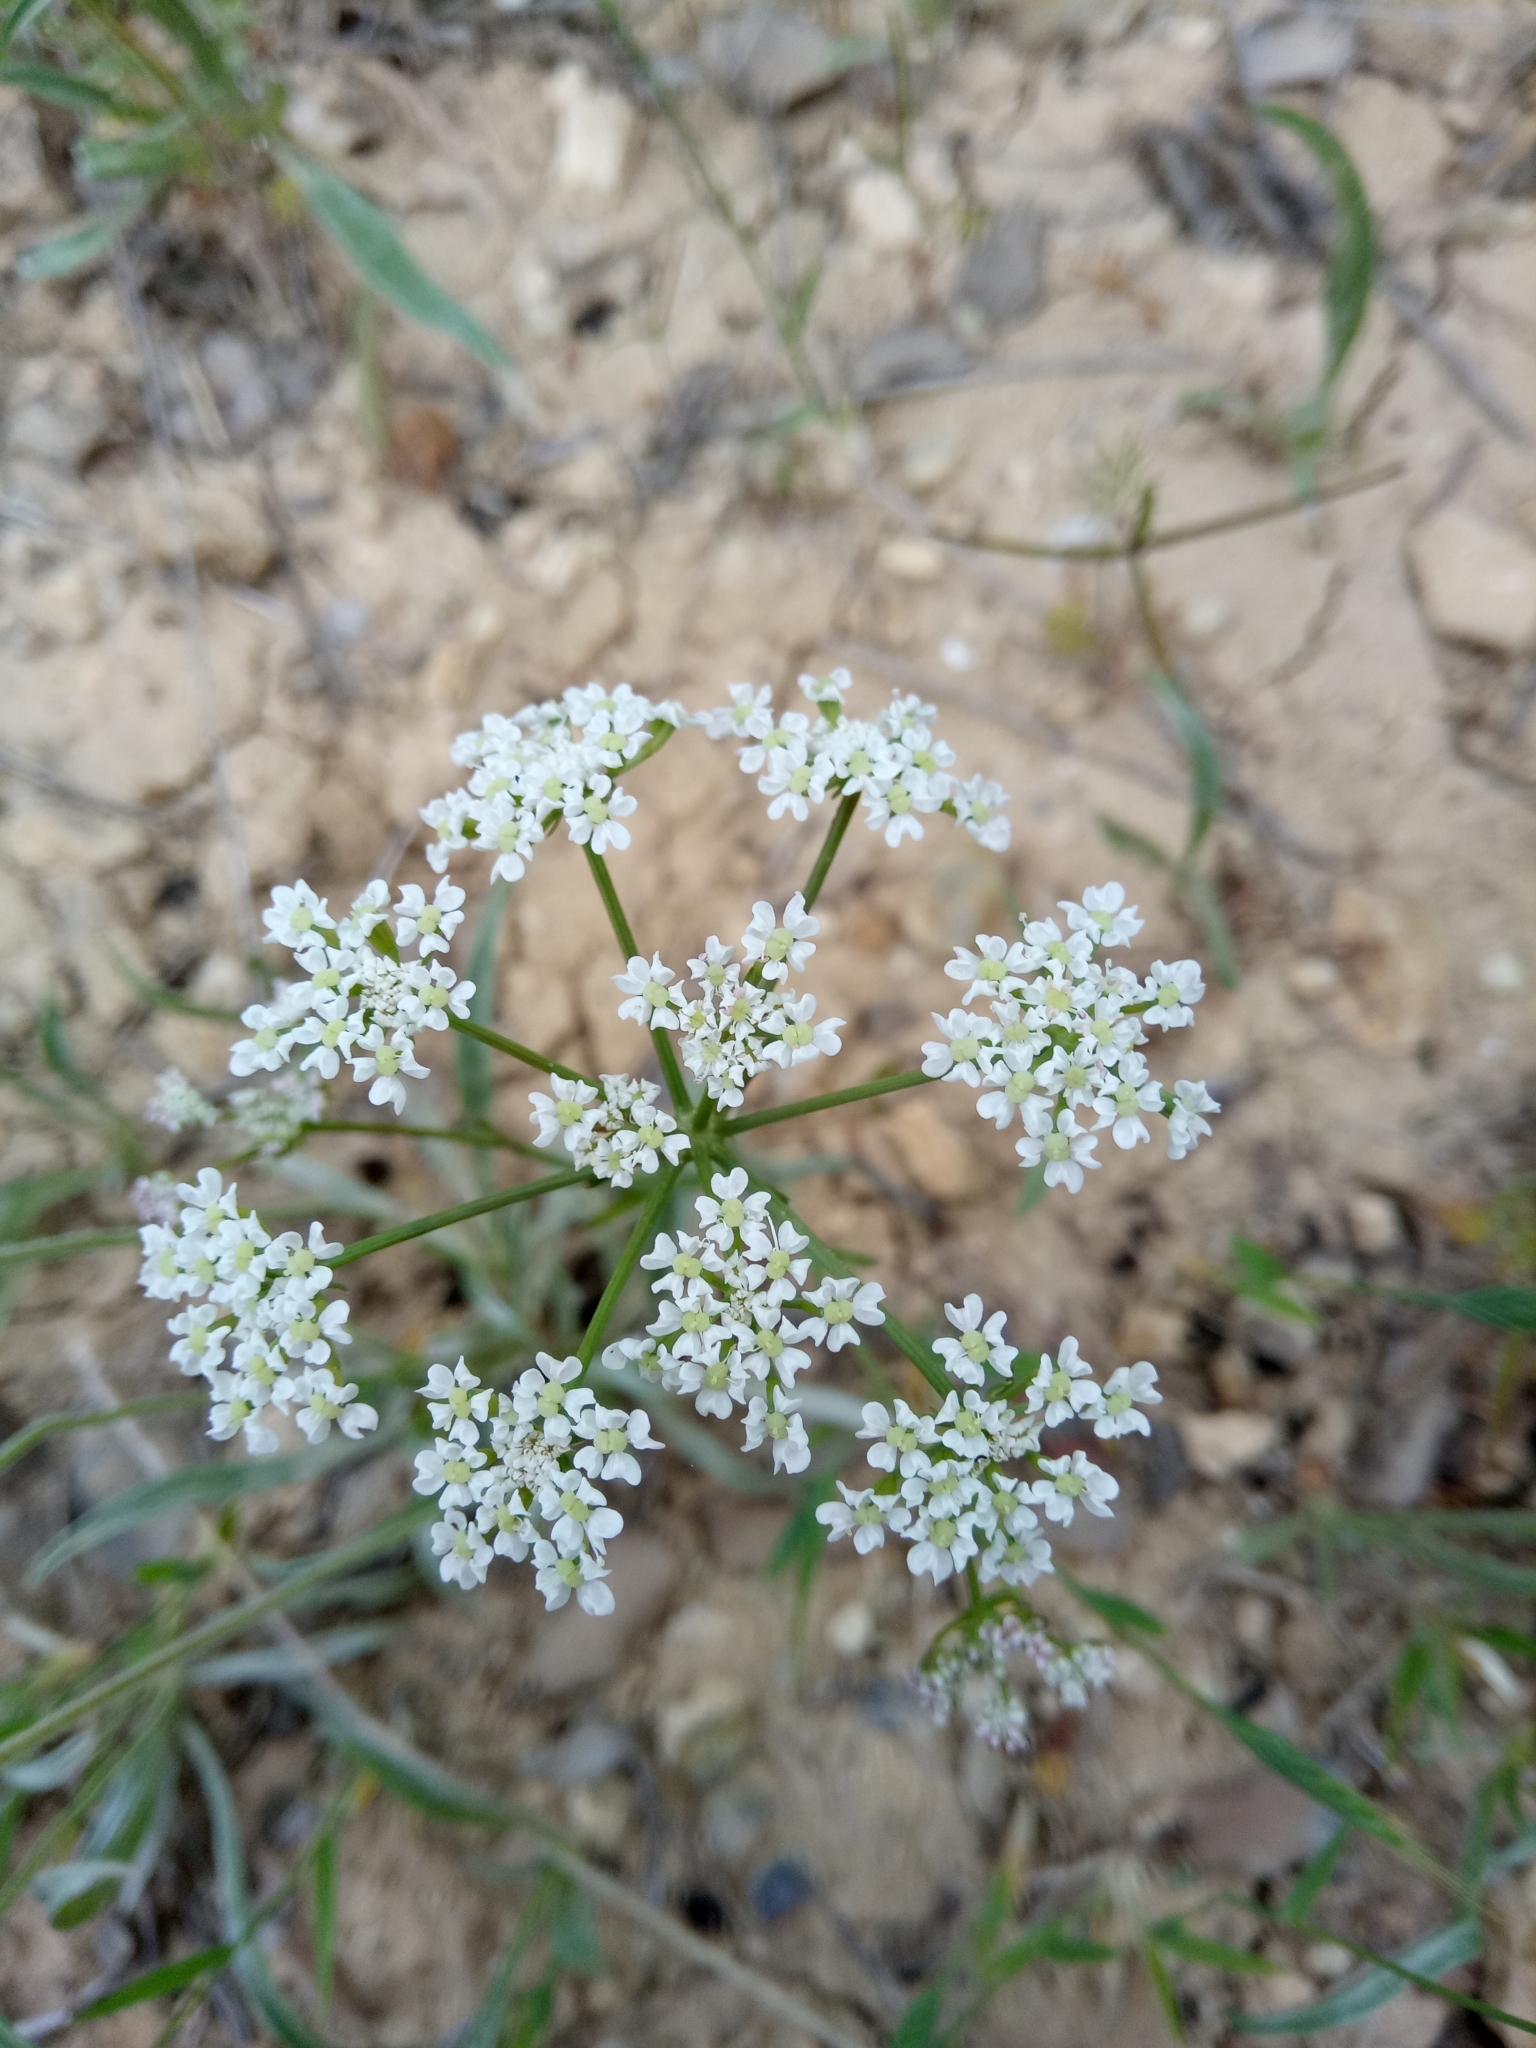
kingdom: Plantae
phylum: Tracheophyta
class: Magnoliopsida
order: Apiales
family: Apiaceae
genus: Bunium
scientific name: Bunium pachypodum
